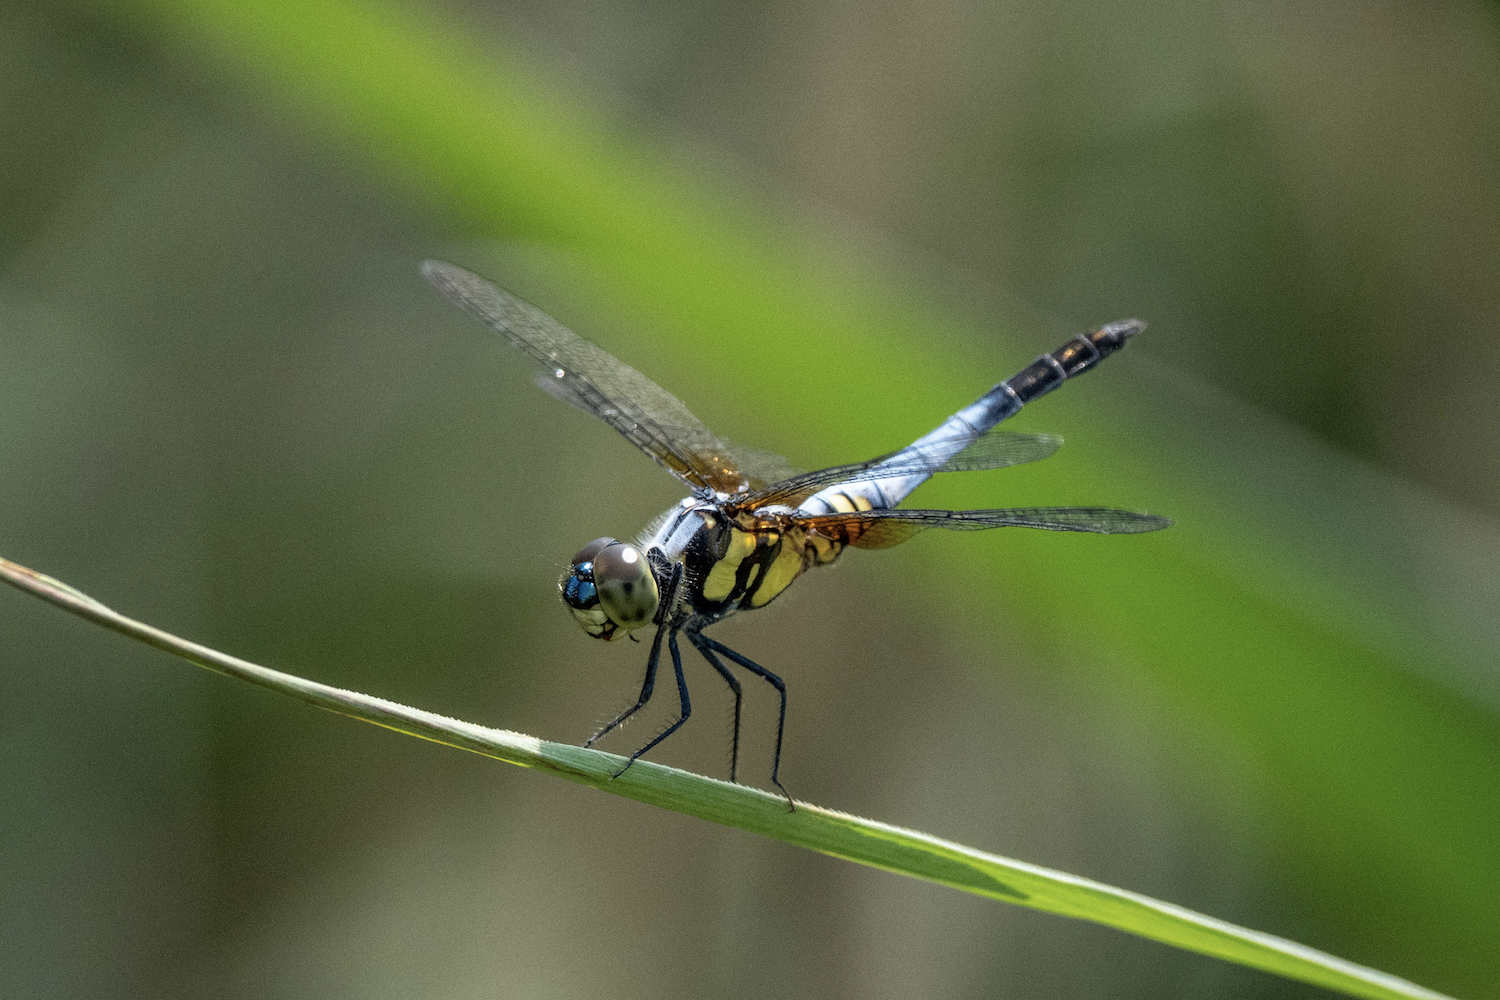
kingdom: Animalia
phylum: Arthropoda
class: Insecta
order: Odonata
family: Libellulidae
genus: Brachydiplax
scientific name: Brachydiplax chalybea
